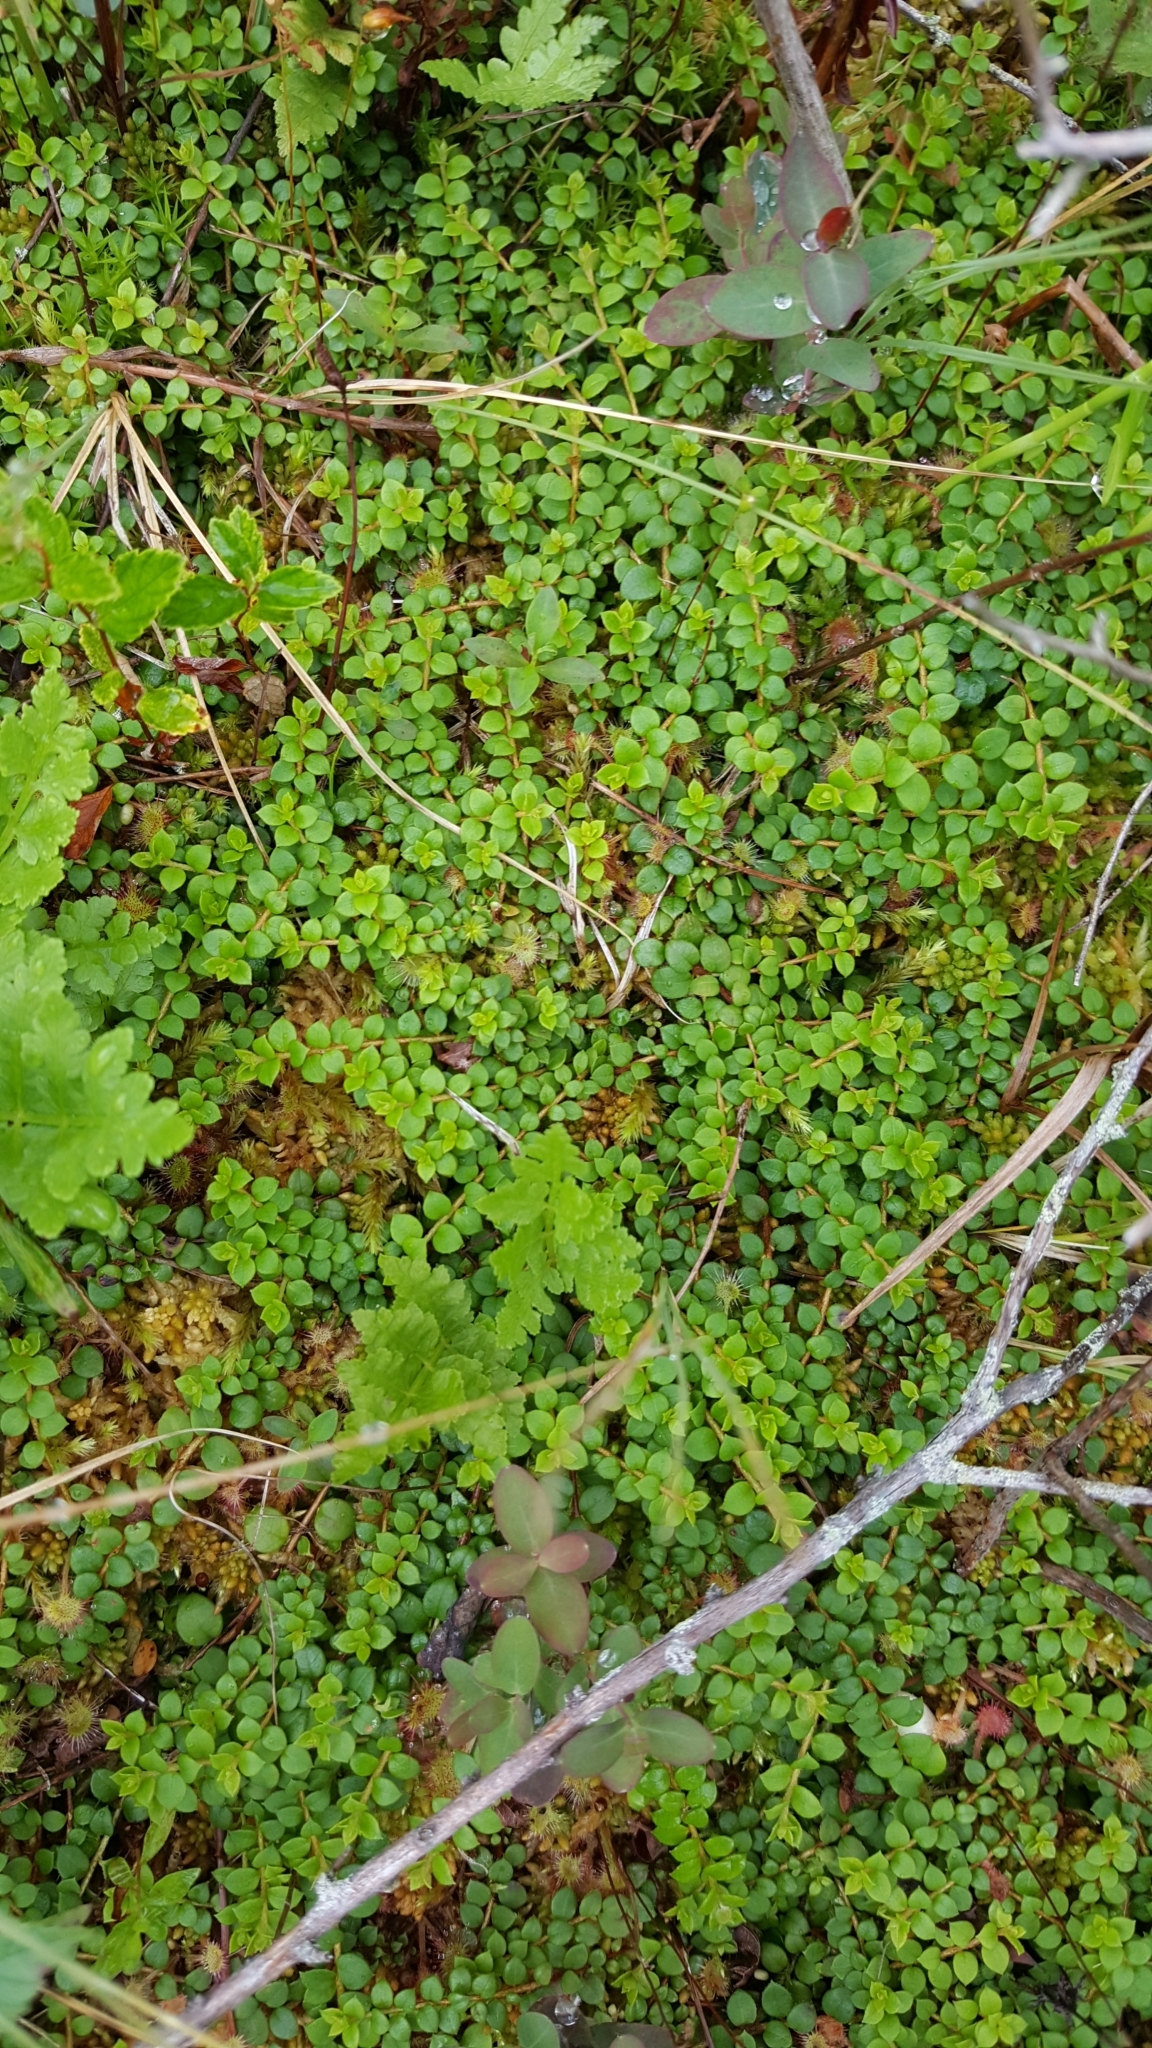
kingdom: Plantae
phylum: Tracheophyta
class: Magnoliopsida
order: Ericales
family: Ericaceae
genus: Gaultheria
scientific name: Gaultheria hispidula
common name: Cancer wintergreen
